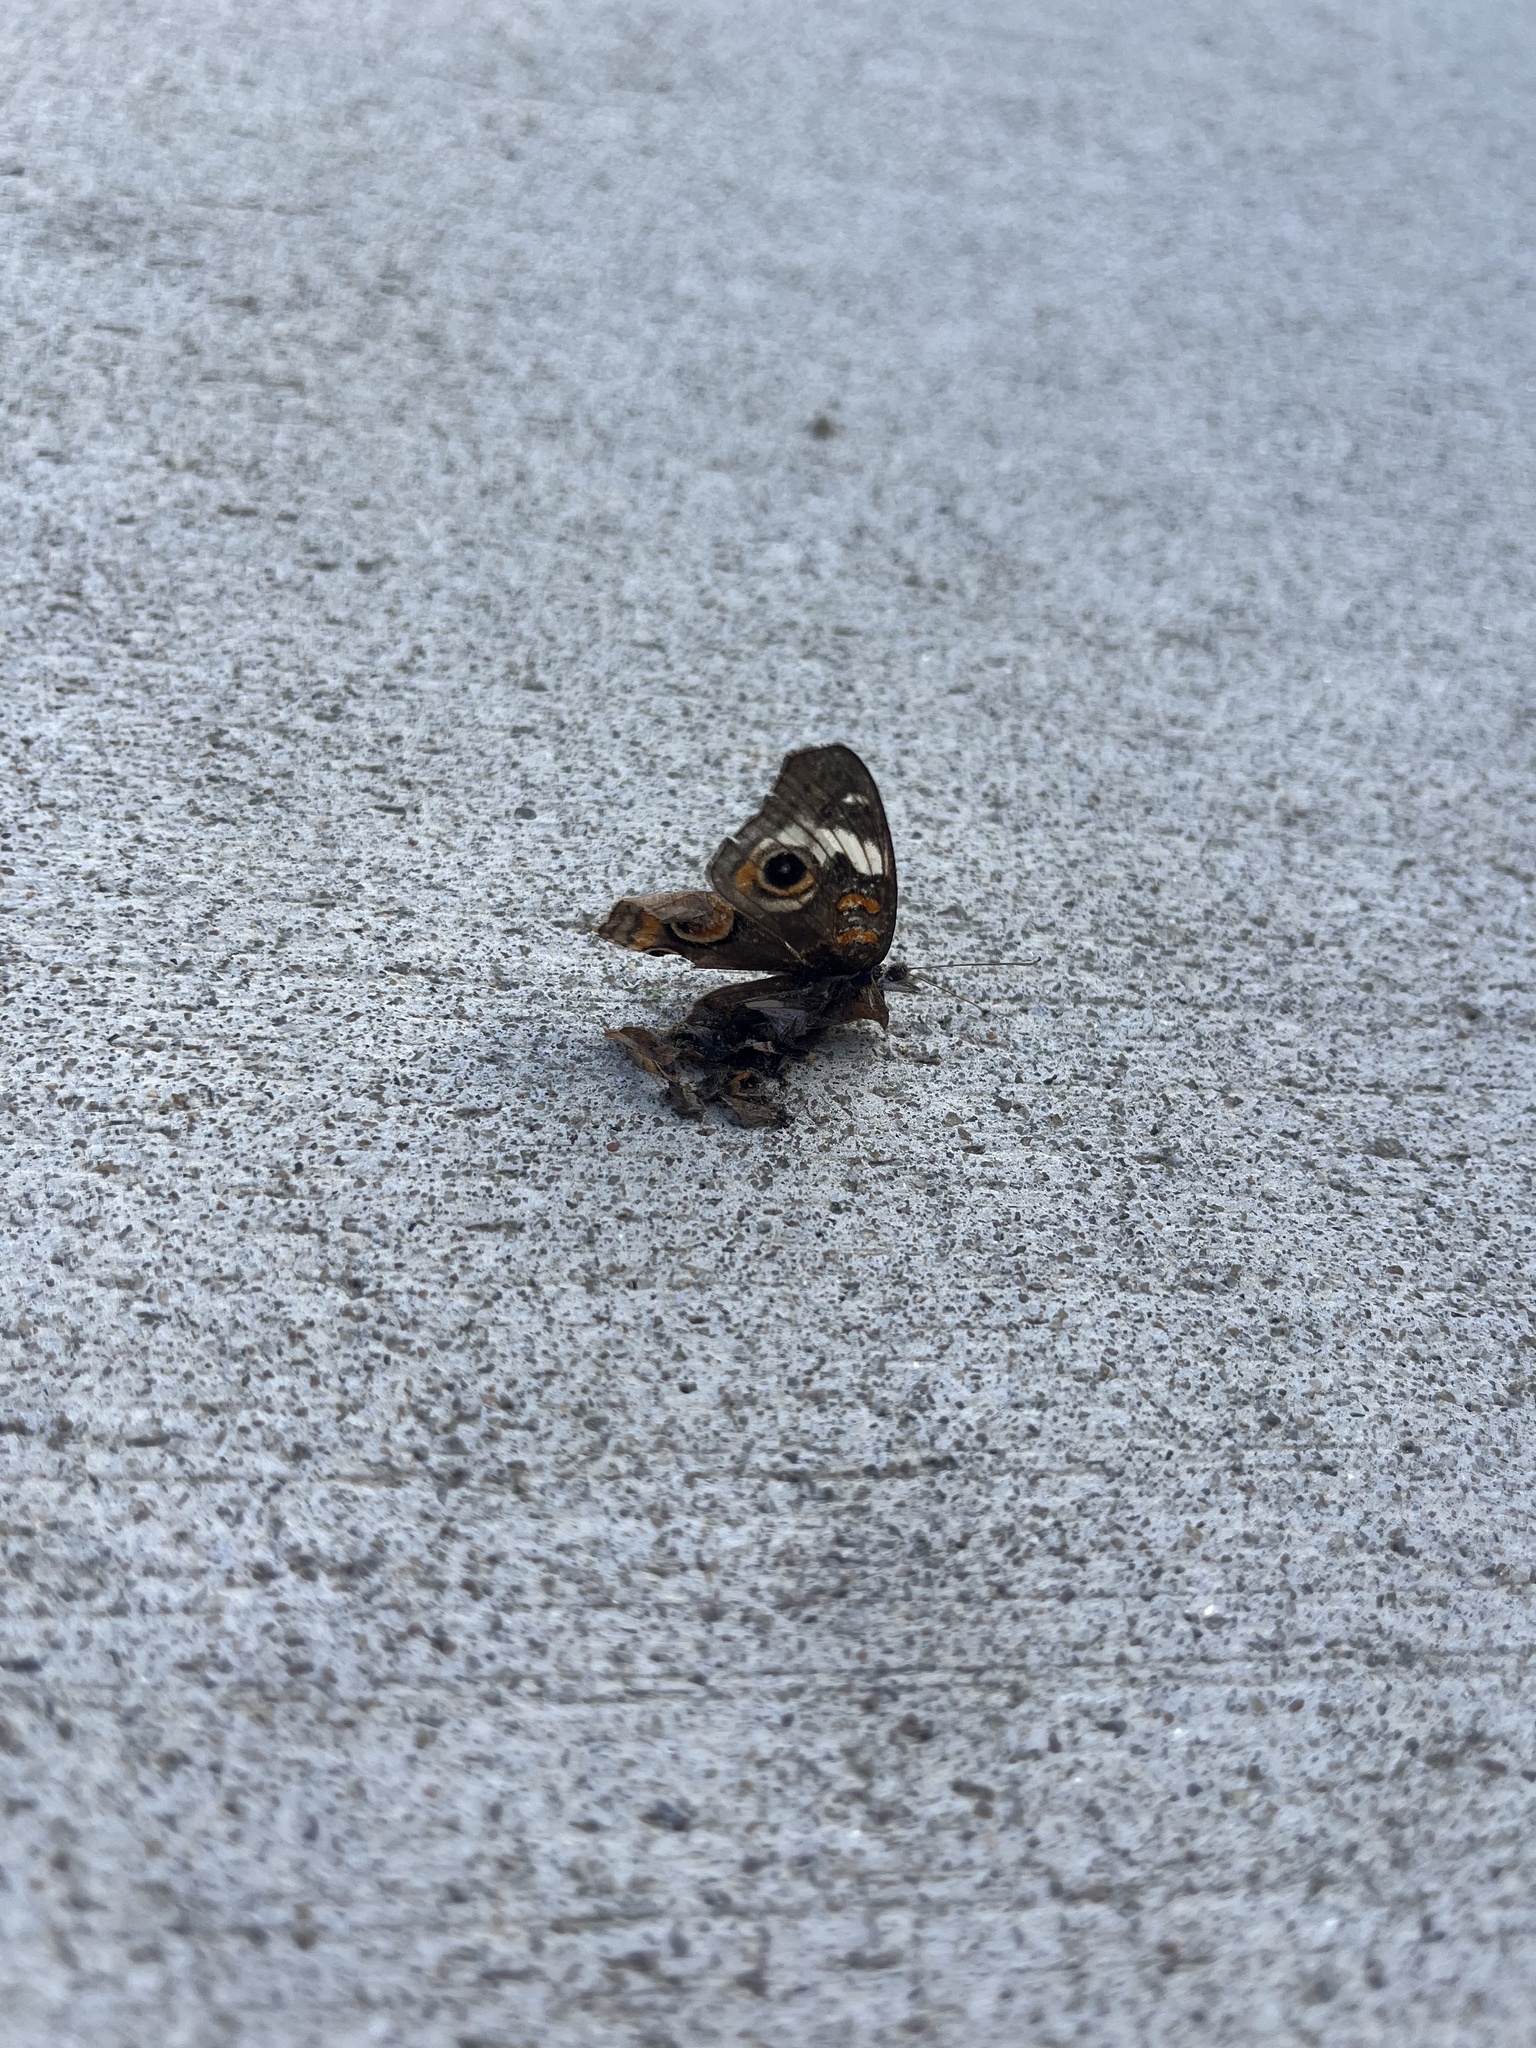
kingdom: Animalia
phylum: Arthropoda
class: Insecta
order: Lepidoptera
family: Nymphalidae
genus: Junonia
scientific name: Junonia coenia
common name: Common buckeye
